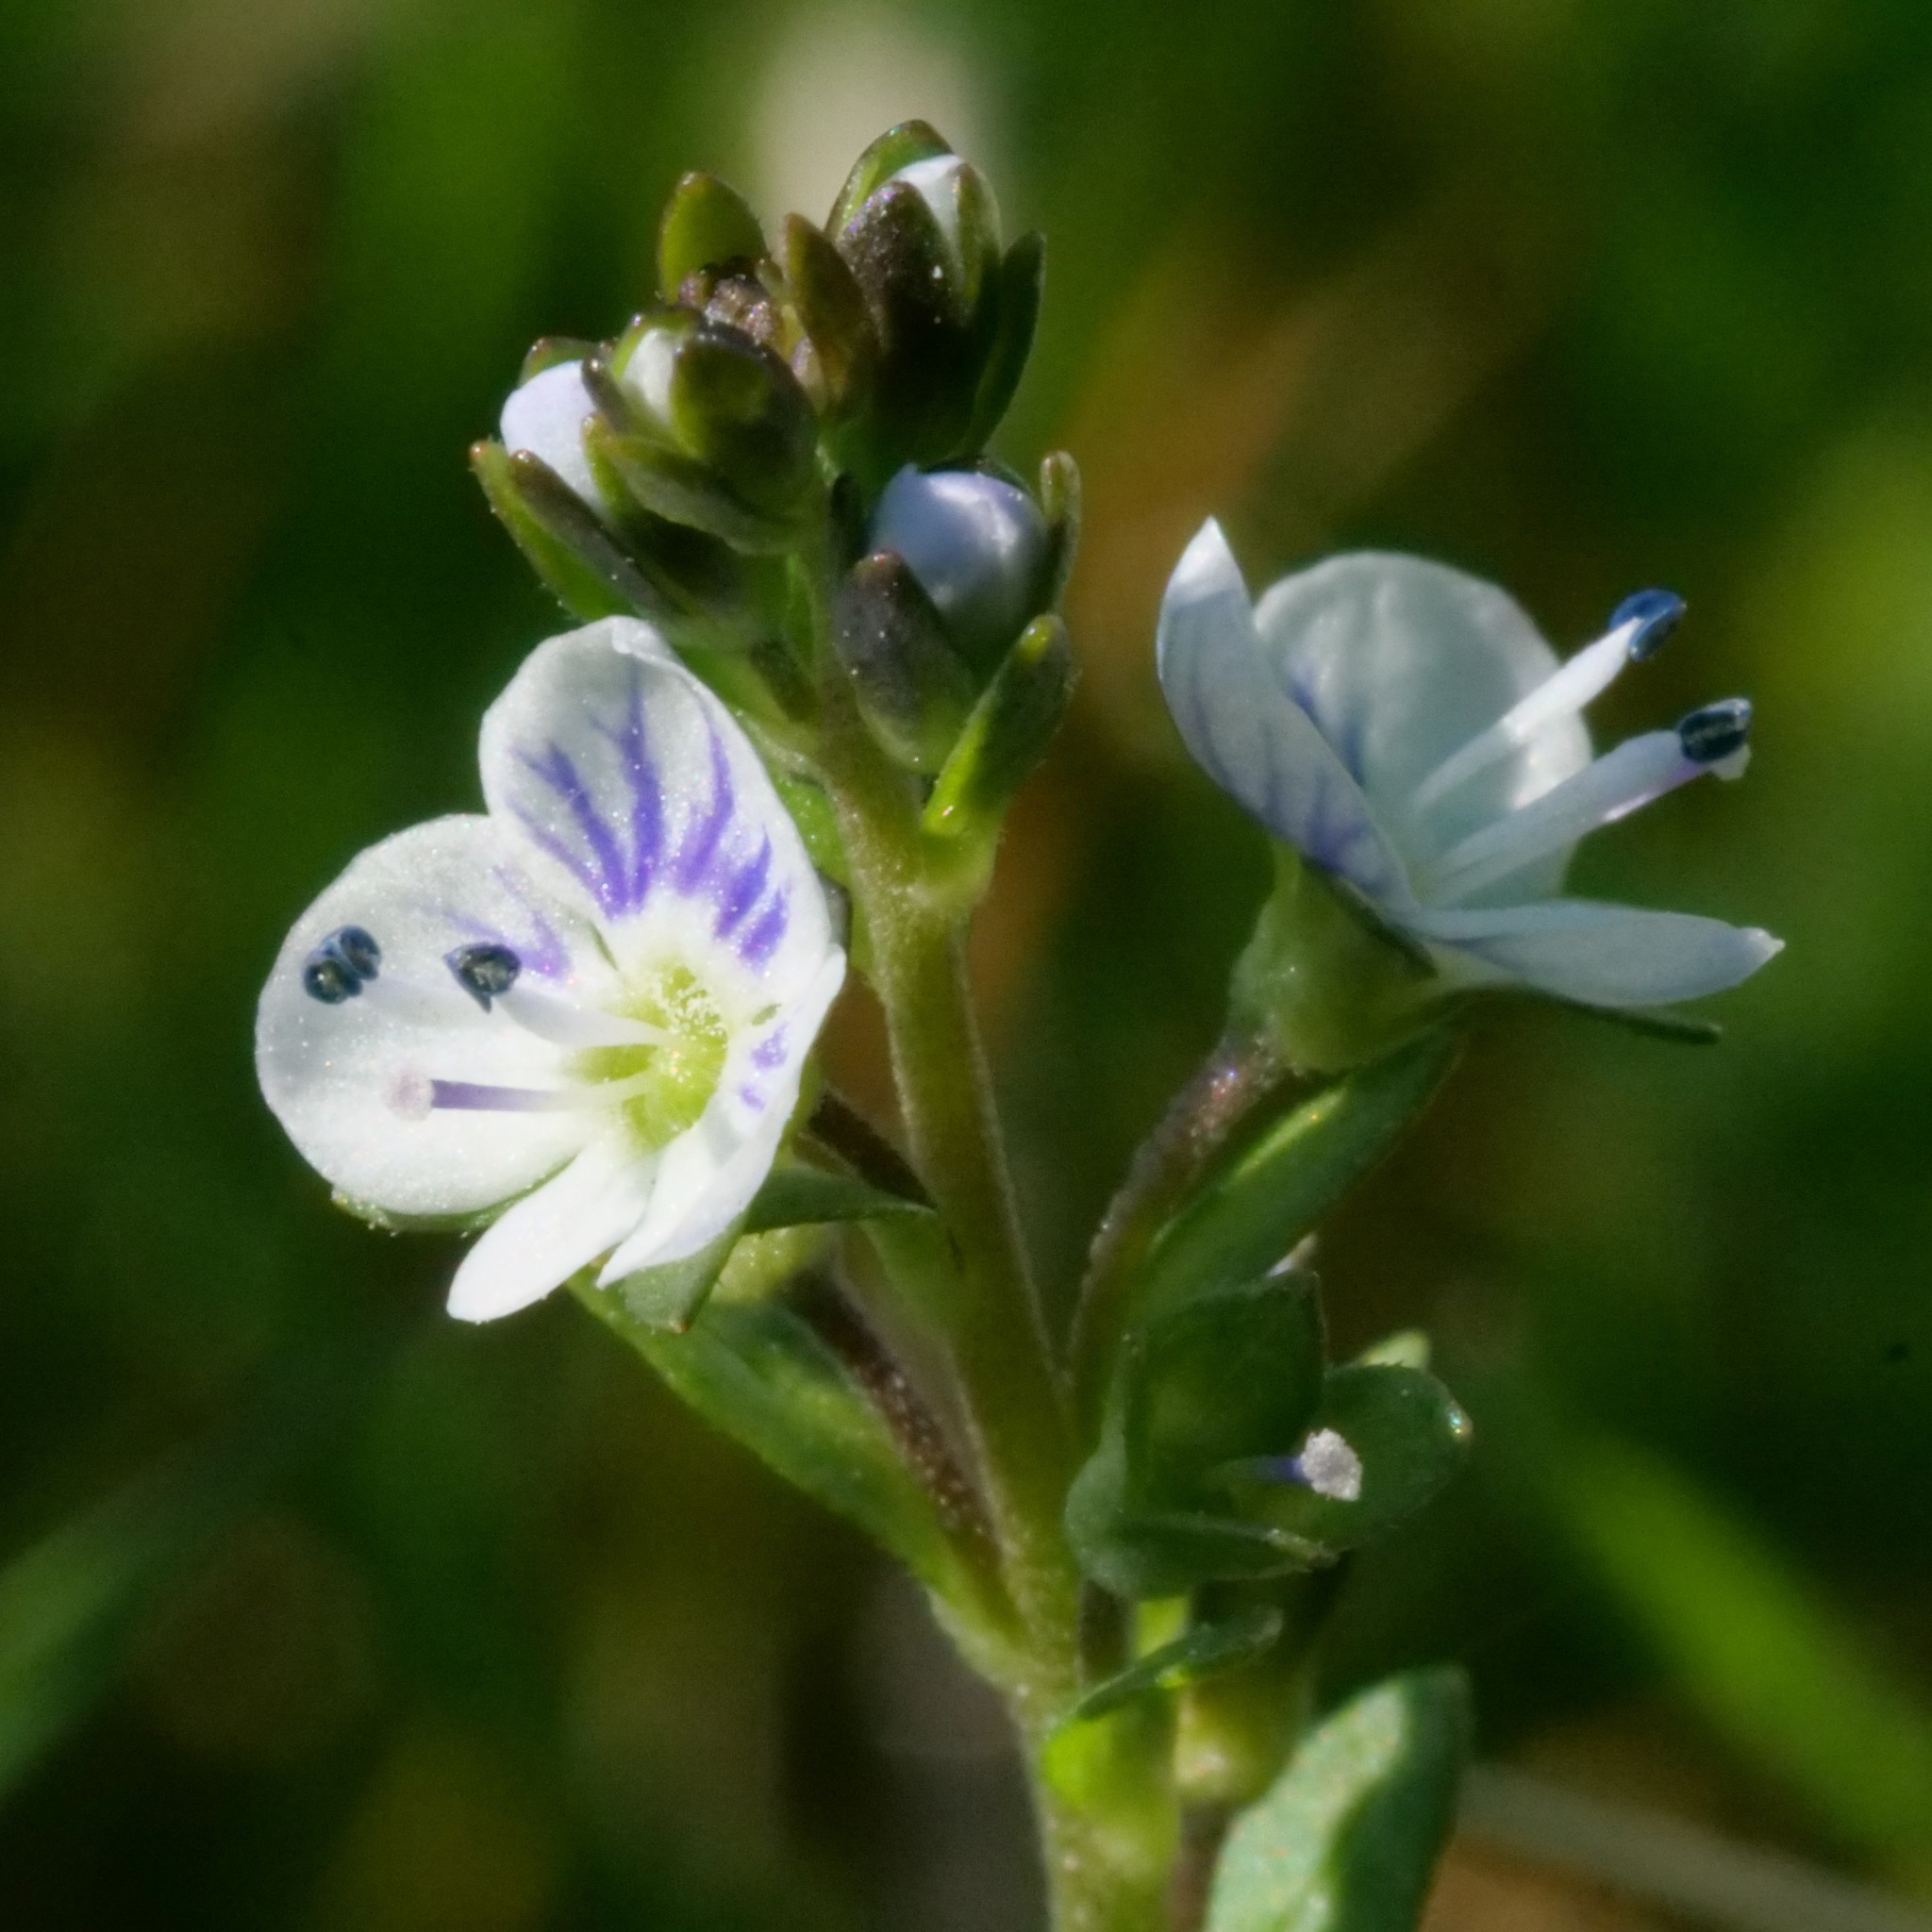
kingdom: Plantae
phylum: Tracheophyta
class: Magnoliopsida
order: Lamiales
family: Plantaginaceae
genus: Veronica
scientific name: Veronica serpyllifolia
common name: Thyme-leaved speedwell
